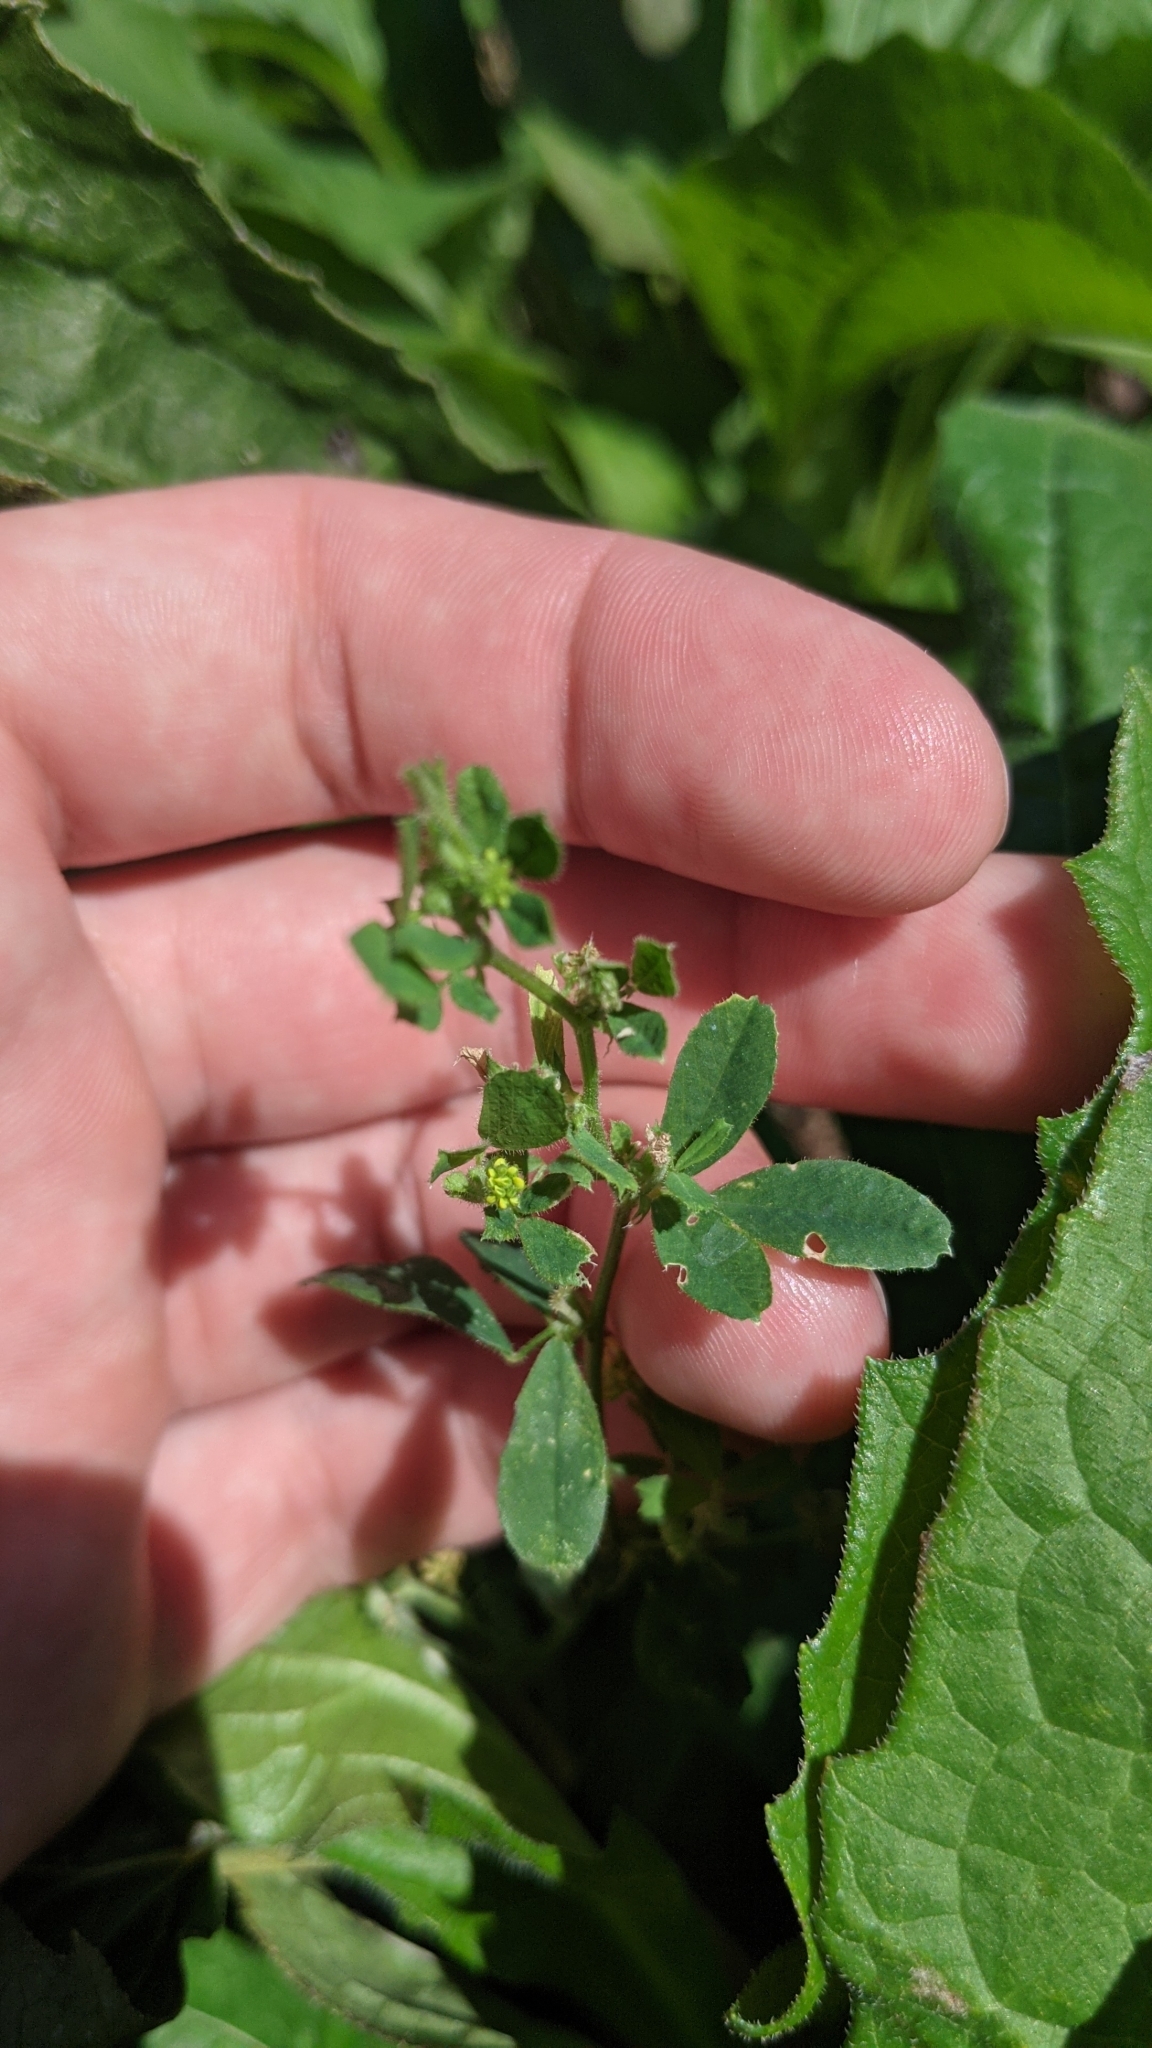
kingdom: Plantae
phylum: Tracheophyta
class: Magnoliopsida
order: Fabales
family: Fabaceae
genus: Medicago
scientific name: Medicago lupulina
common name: Black medick
